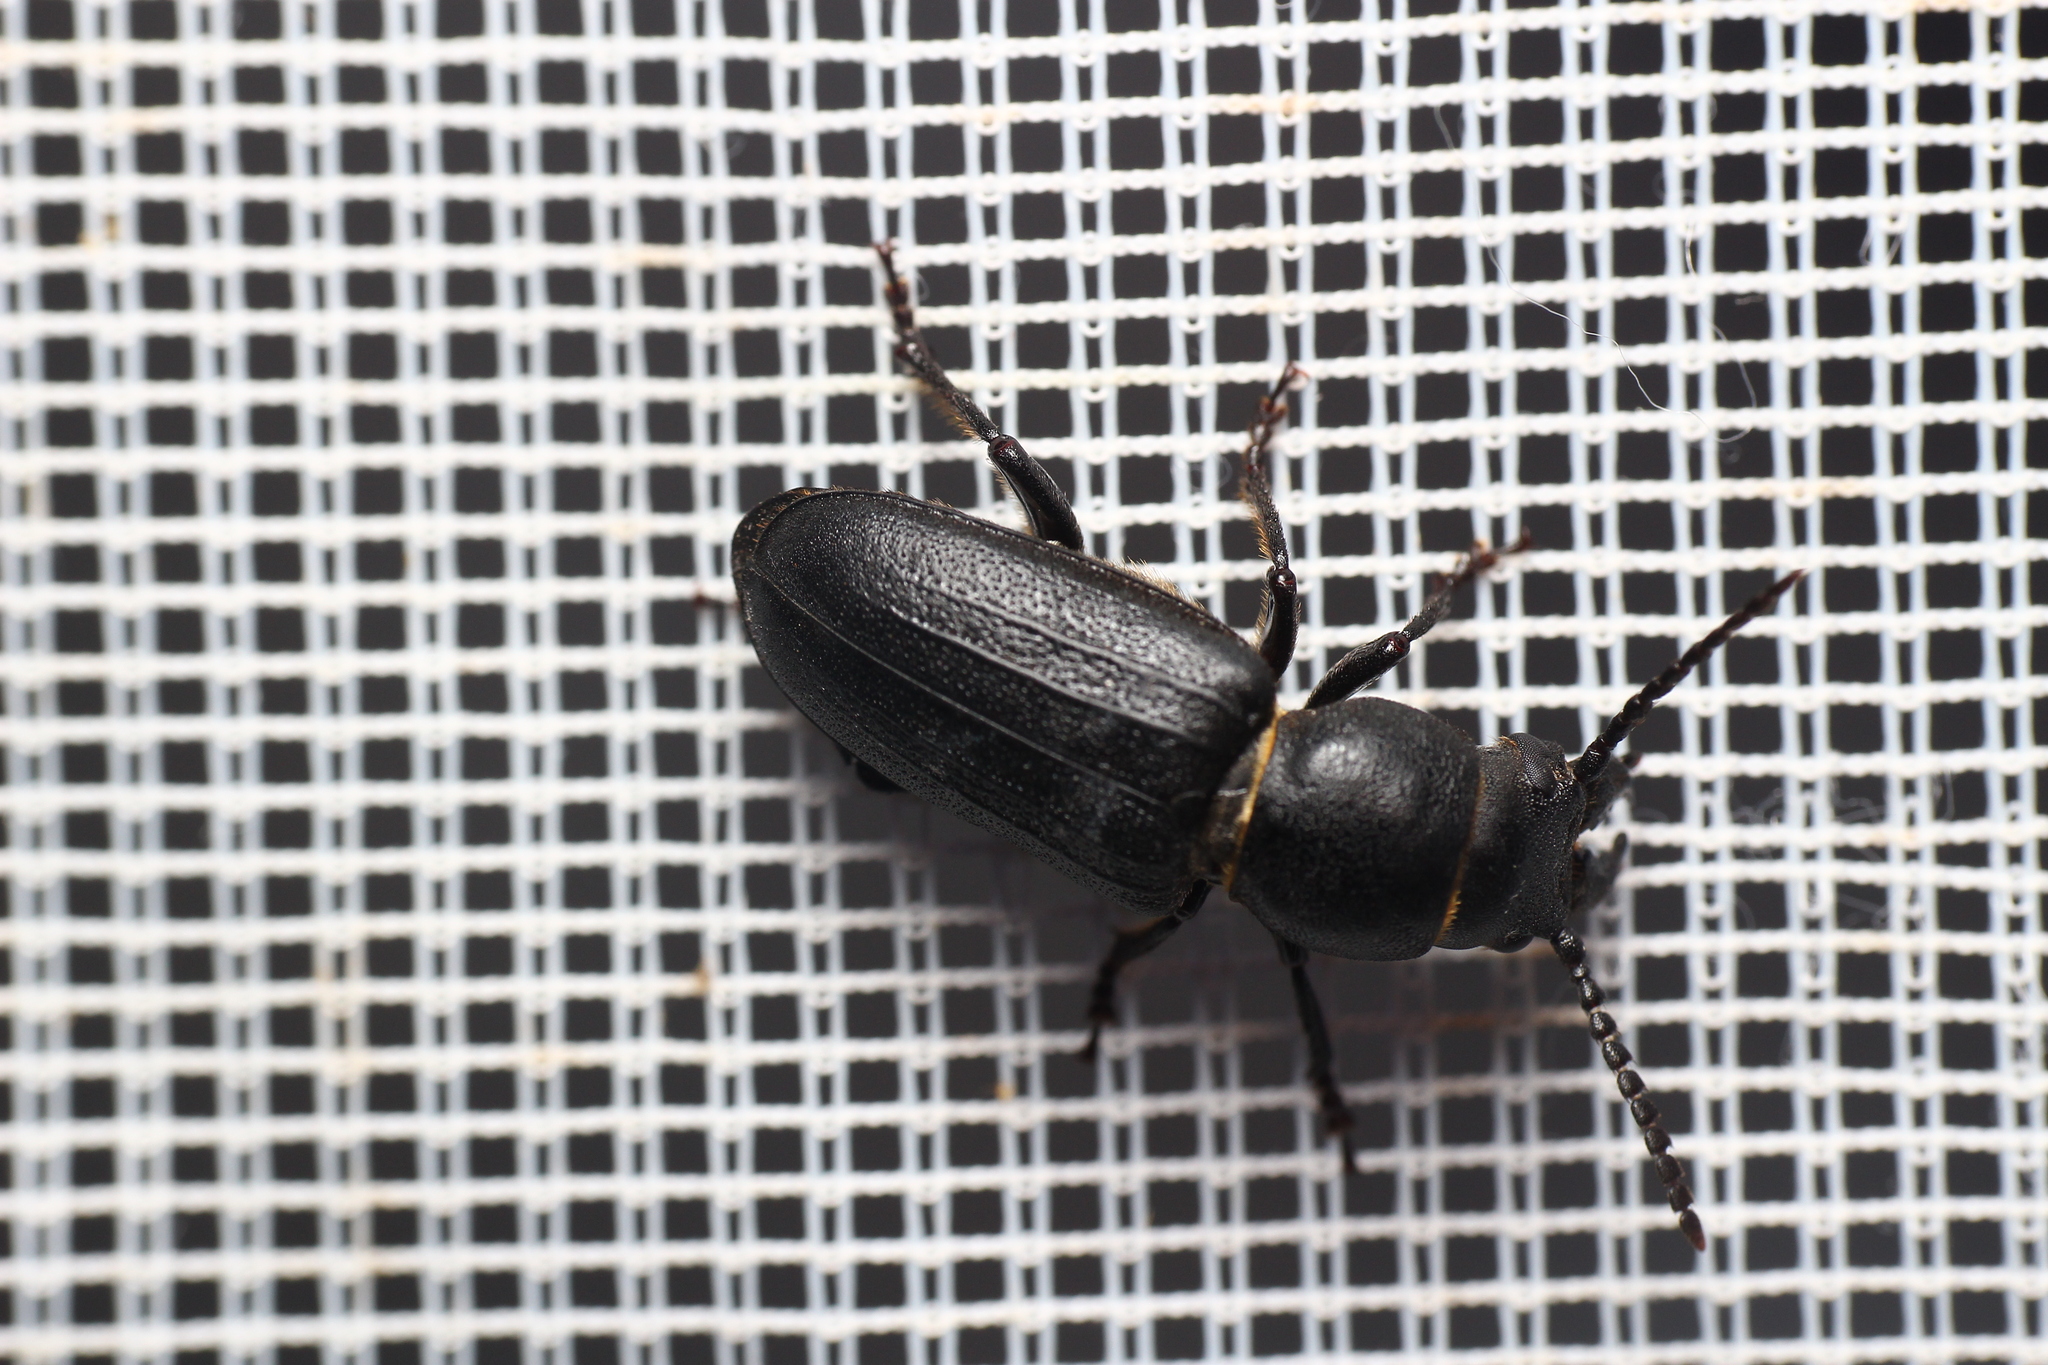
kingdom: Animalia
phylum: Arthropoda
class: Insecta
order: Coleoptera
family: Cerambycidae
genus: Spondylis
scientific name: Spondylis buprestoides
